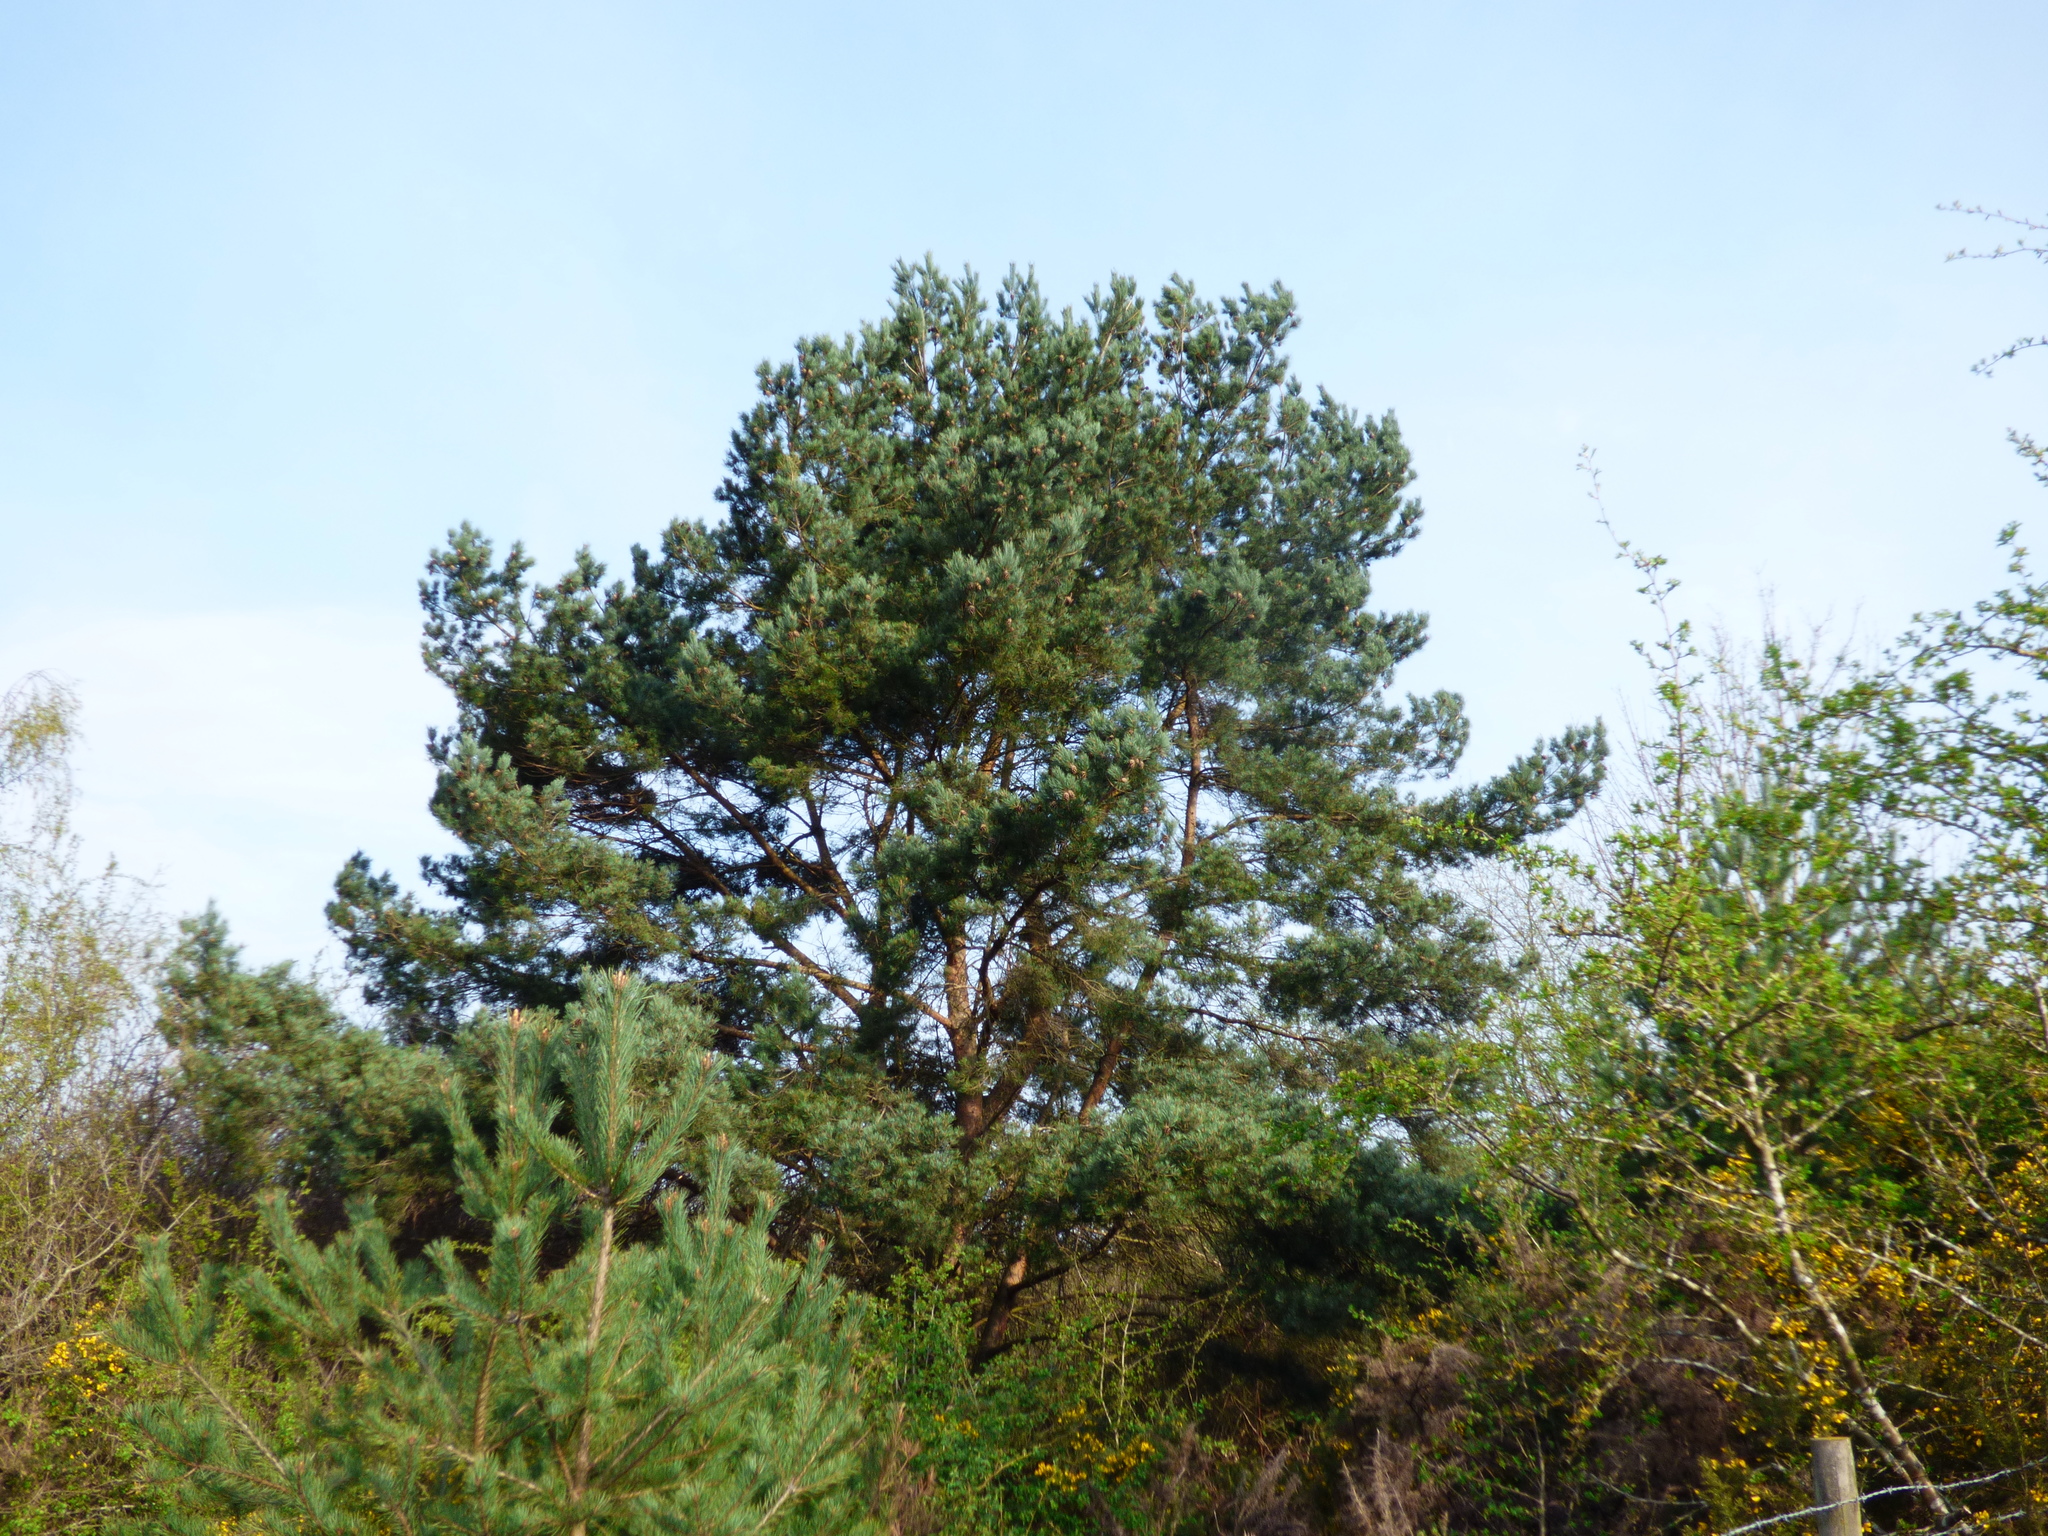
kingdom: Plantae
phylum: Tracheophyta
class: Pinopsida
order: Pinales
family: Pinaceae
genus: Pinus
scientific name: Pinus sylvestris
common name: Scots pine
